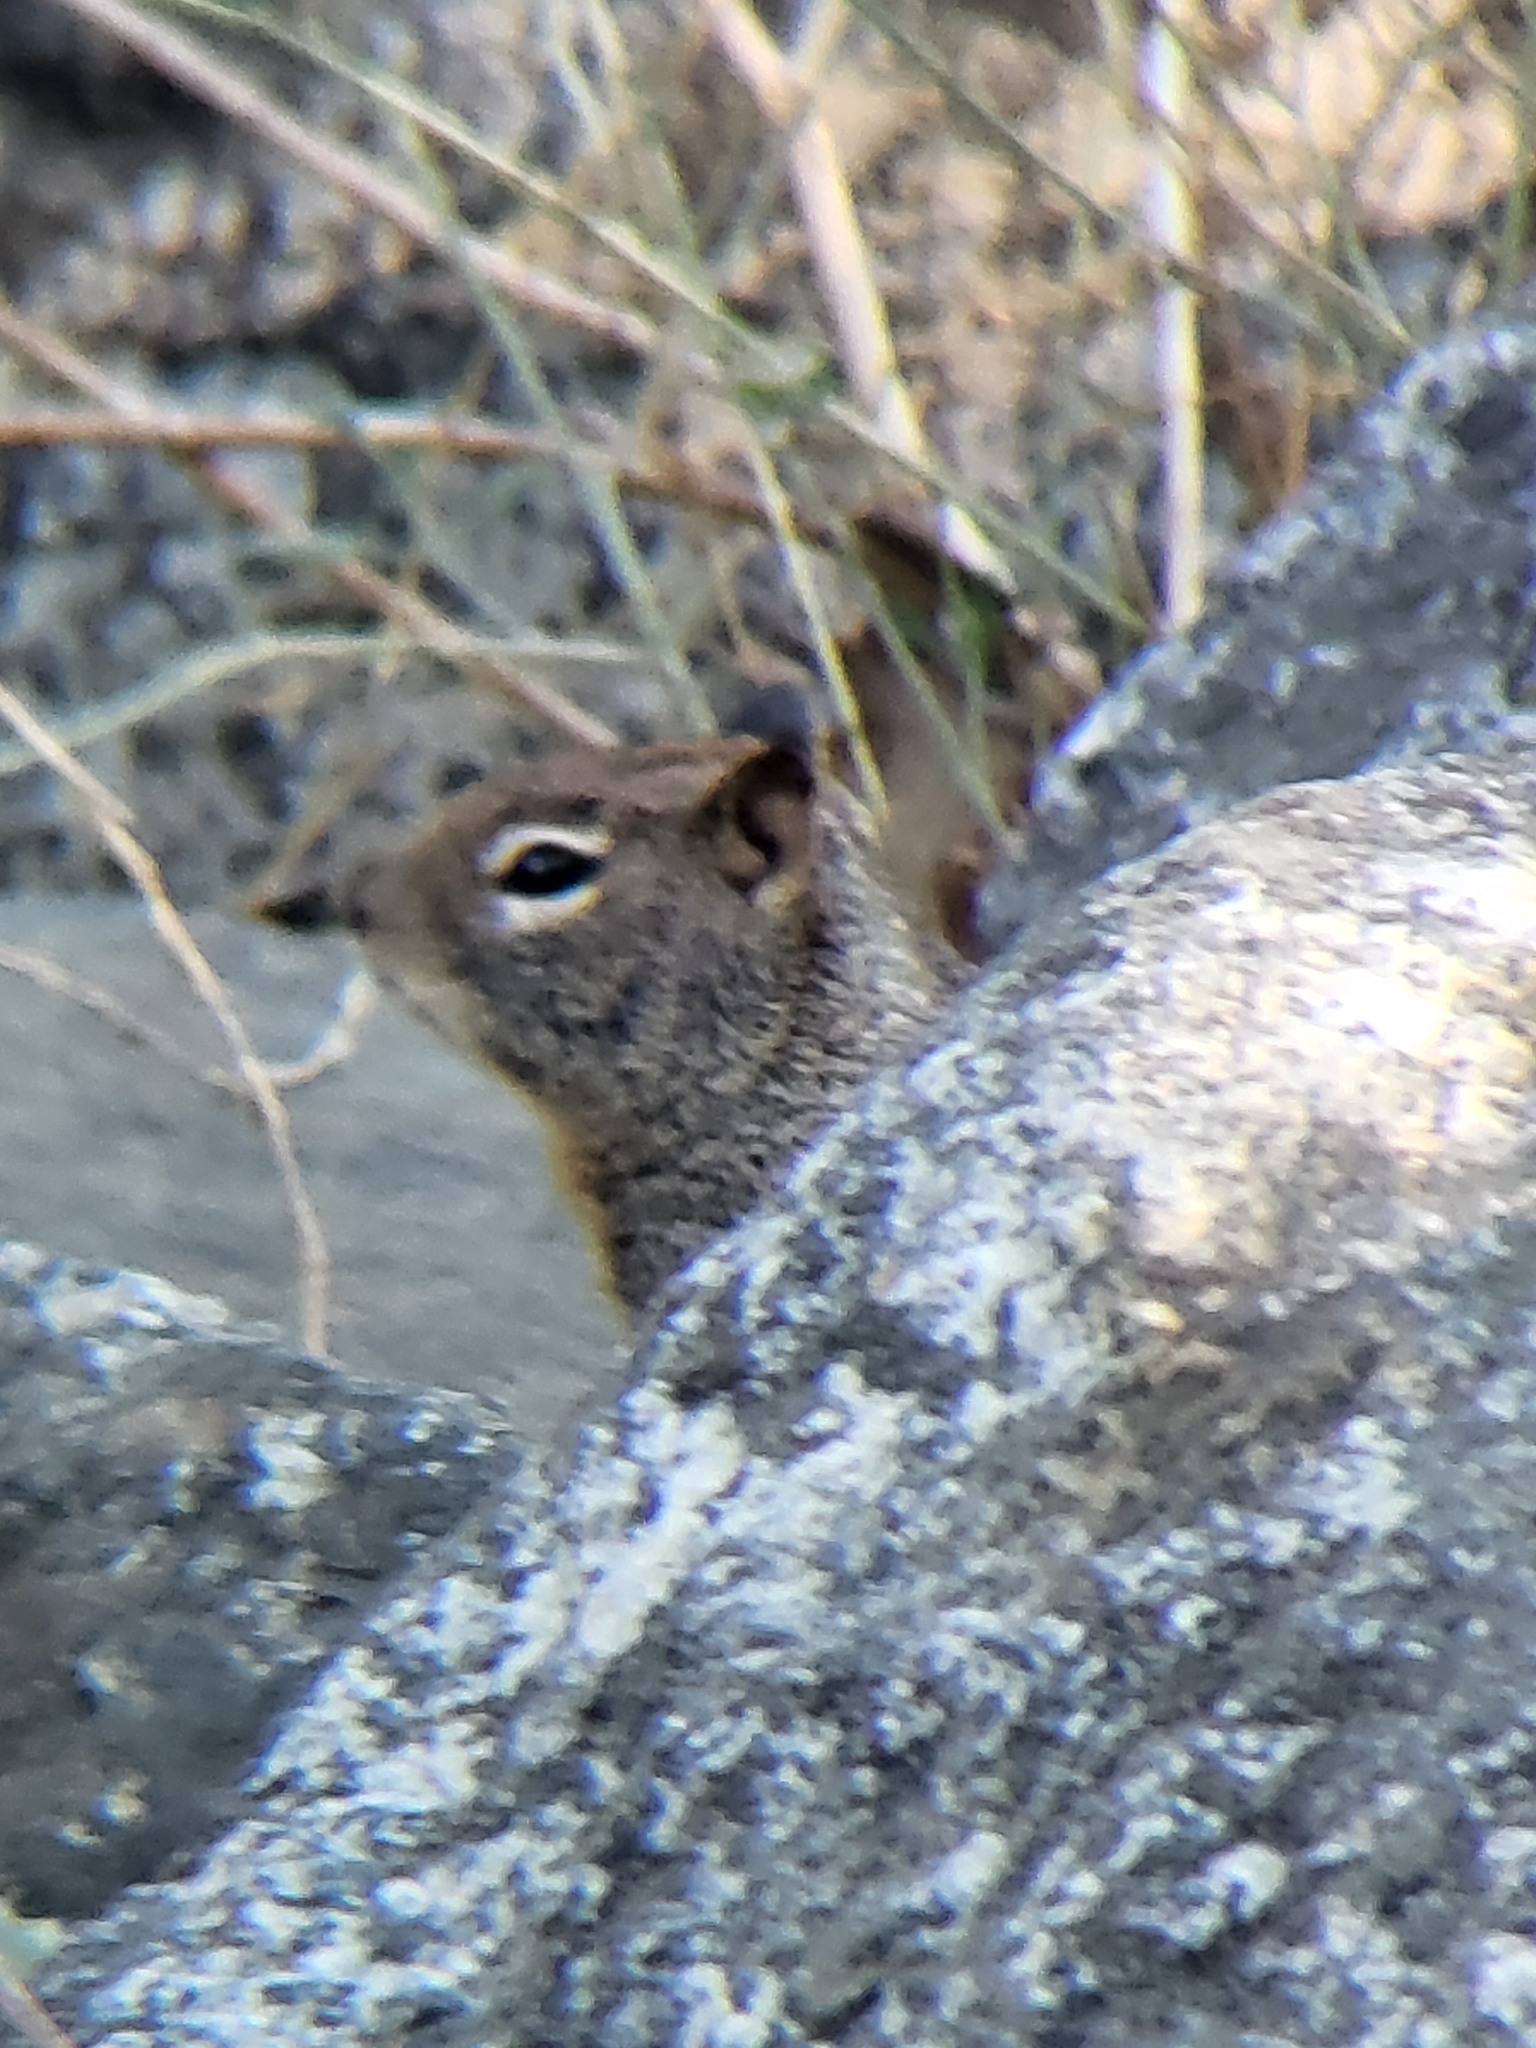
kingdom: Animalia
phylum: Chordata
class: Mammalia
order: Rodentia
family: Sciuridae
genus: Otospermophilus
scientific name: Otospermophilus beecheyi
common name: California ground squirrel
